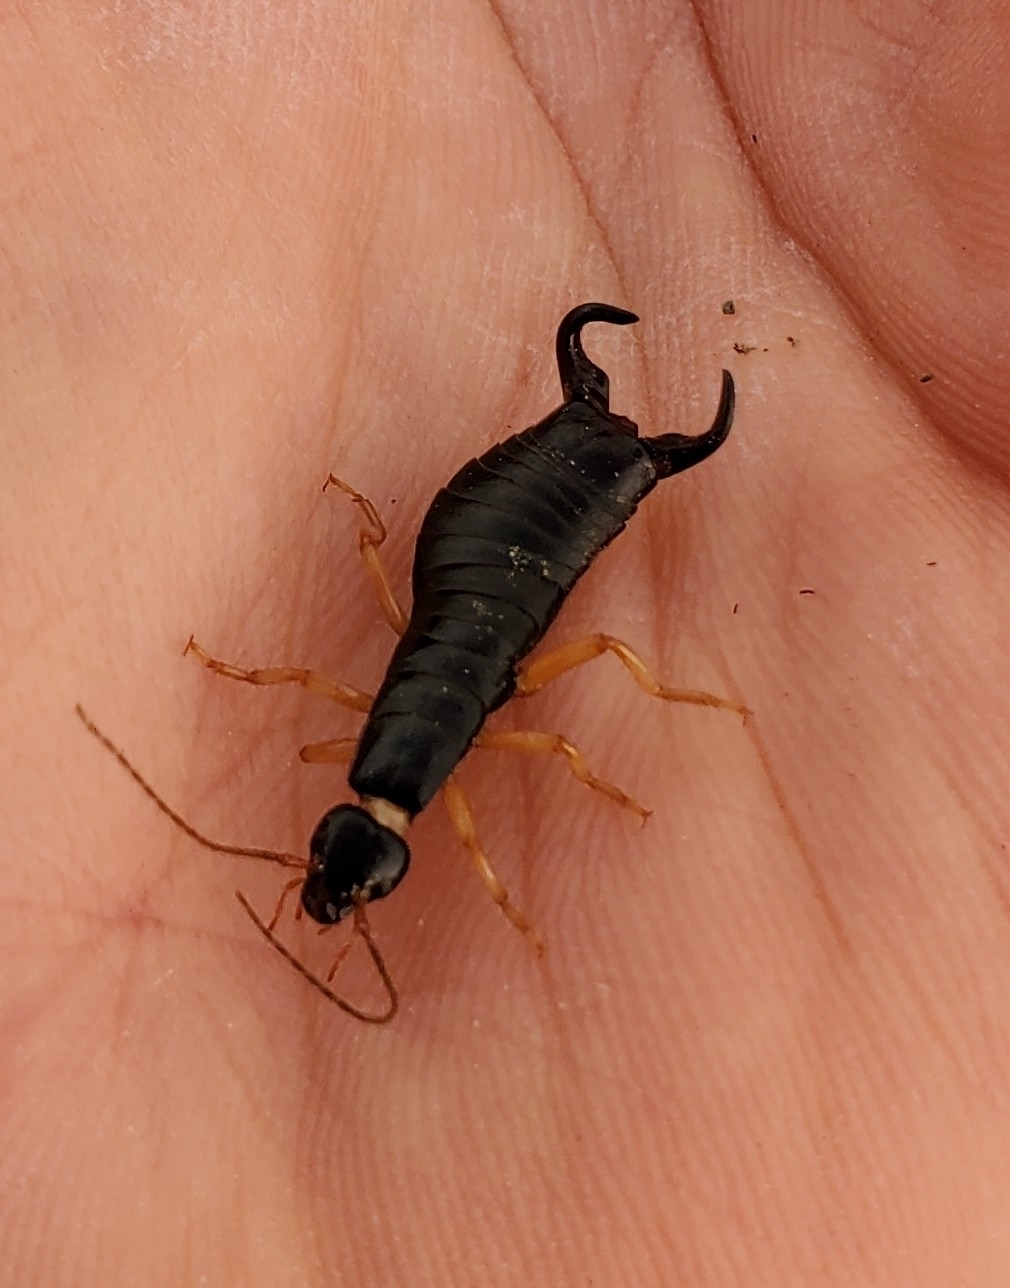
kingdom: Animalia
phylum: Arthropoda
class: Insecta
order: Dermaptera
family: Anisolabididae
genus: Anisolabis
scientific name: Anisolabis maritima
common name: Maritime earwig
